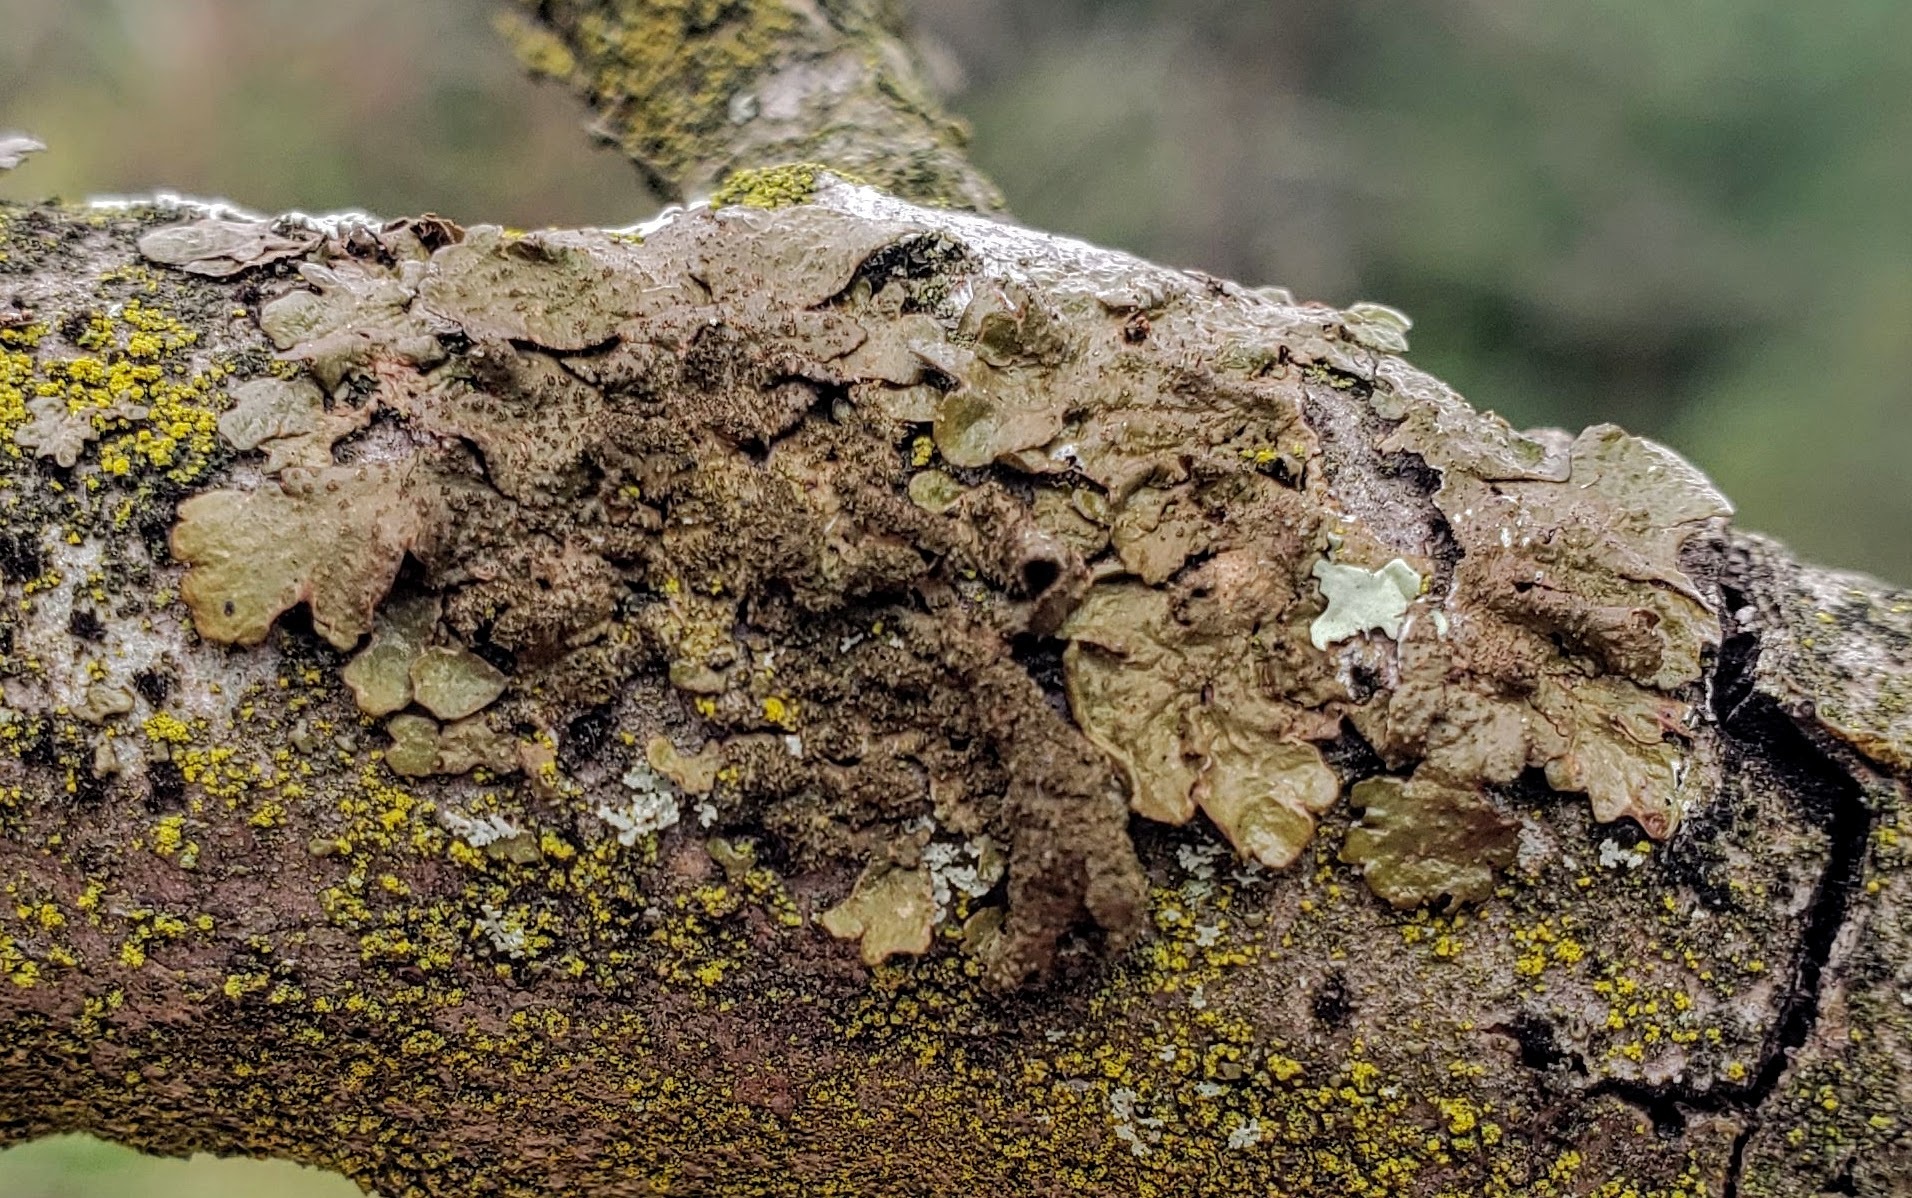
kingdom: Fungi
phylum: Ascomycota
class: Lecanoromycetes
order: Lecanorales
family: Parmeliaceae
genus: Melanelixia
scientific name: Melanelixia subaurifera
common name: Abraded camouflage lichen
